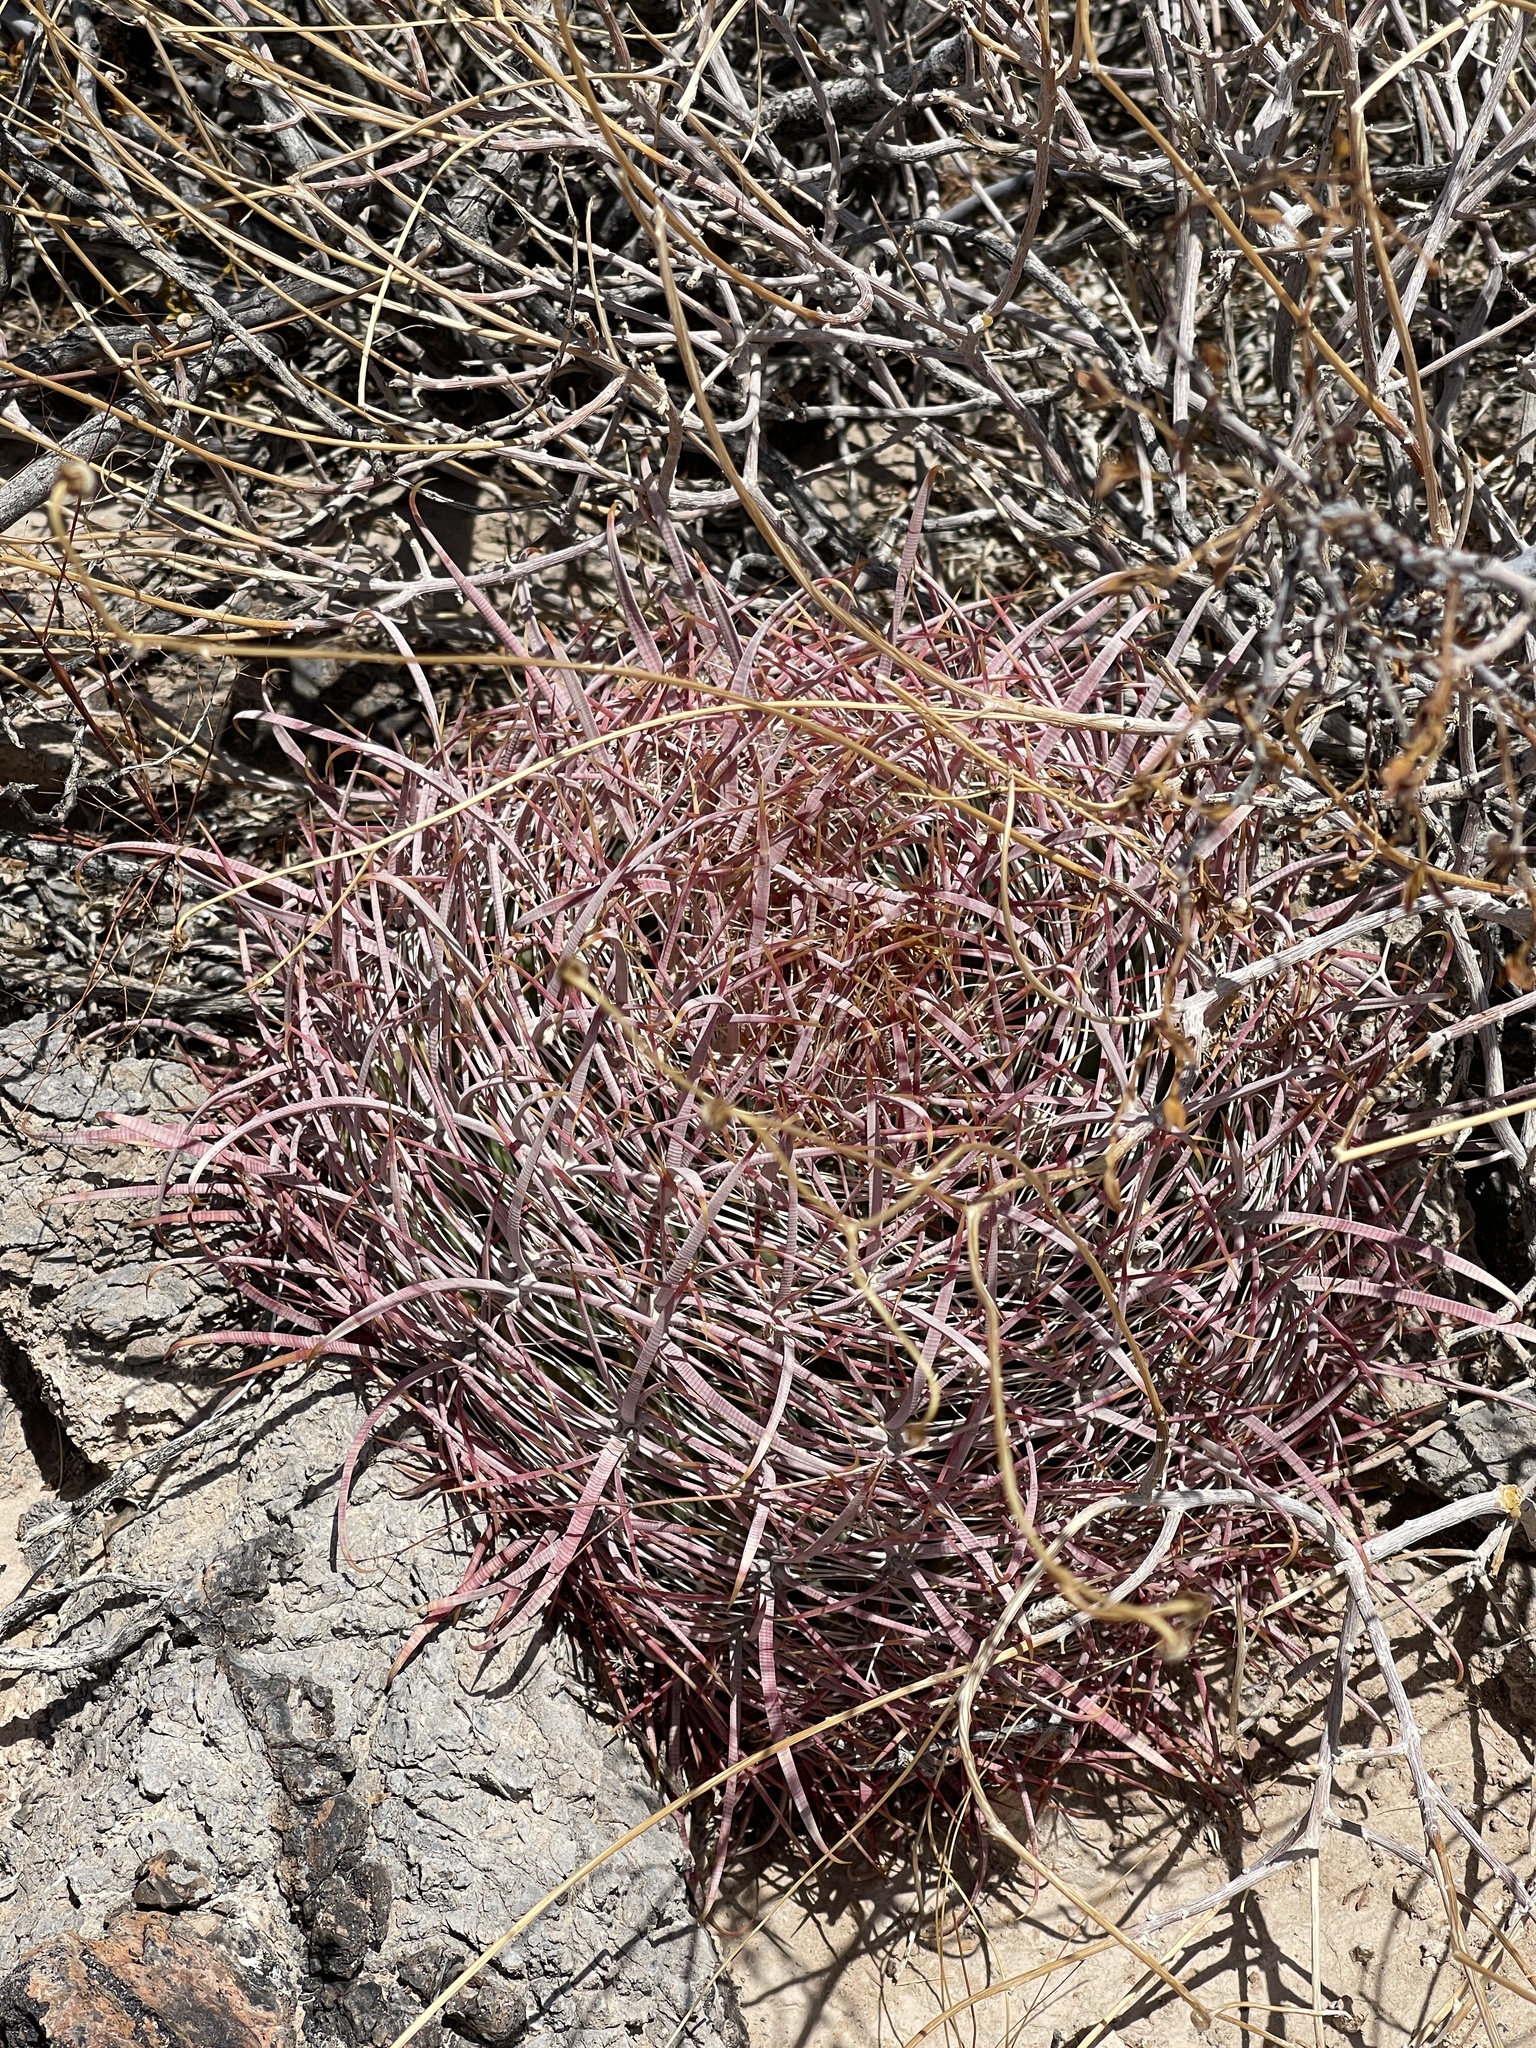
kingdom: Plantae
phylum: Tracheophyta
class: Magnoliopsida
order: Caryophyllales
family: Cactaceae
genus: Ferocactus
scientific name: Ferocactus cylindraceus
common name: California barrel cactus
